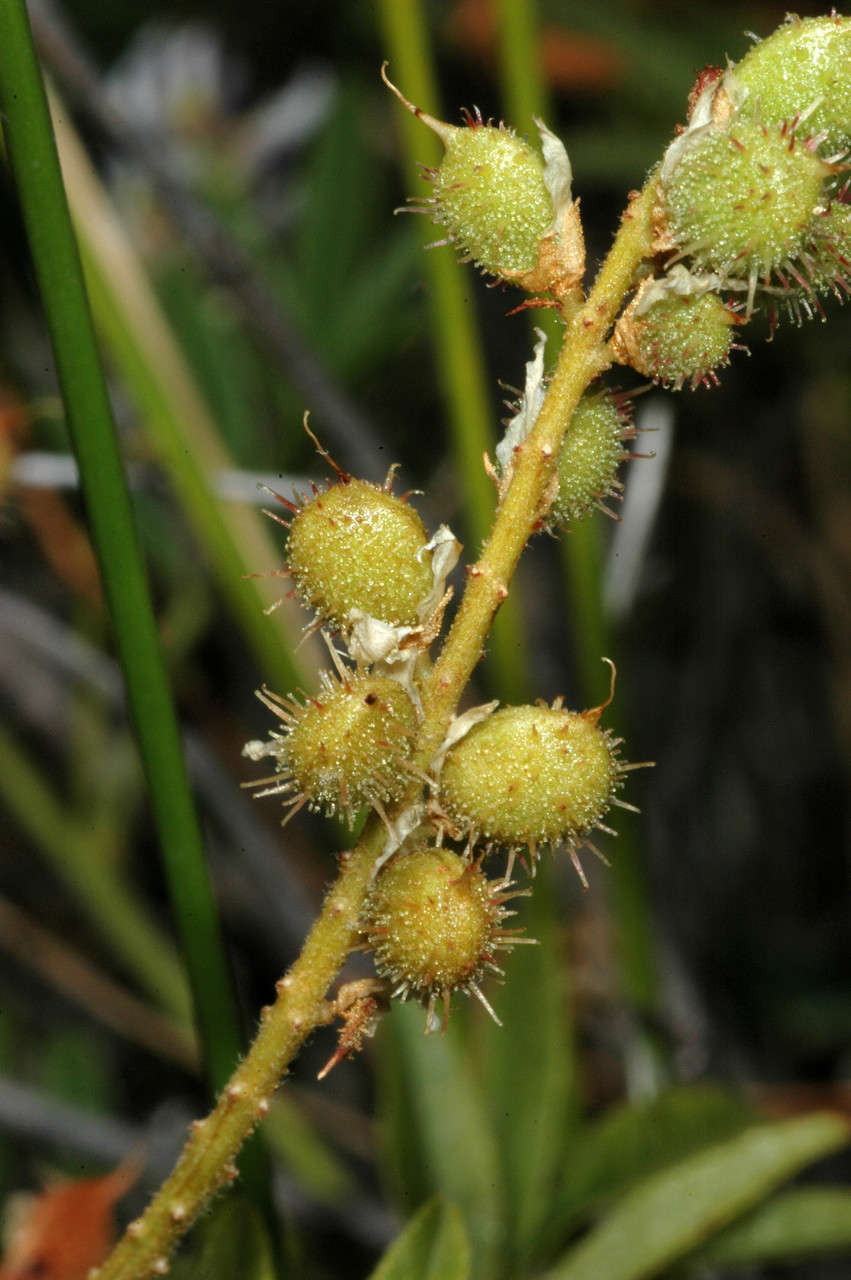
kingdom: Plantae
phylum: Tracheophyta
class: Magnoliopsida
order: Fabales
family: Fabaceae
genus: Glycyrrhiza
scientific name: Glycyrrhiza acanthocarpa
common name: Southern liquorice
